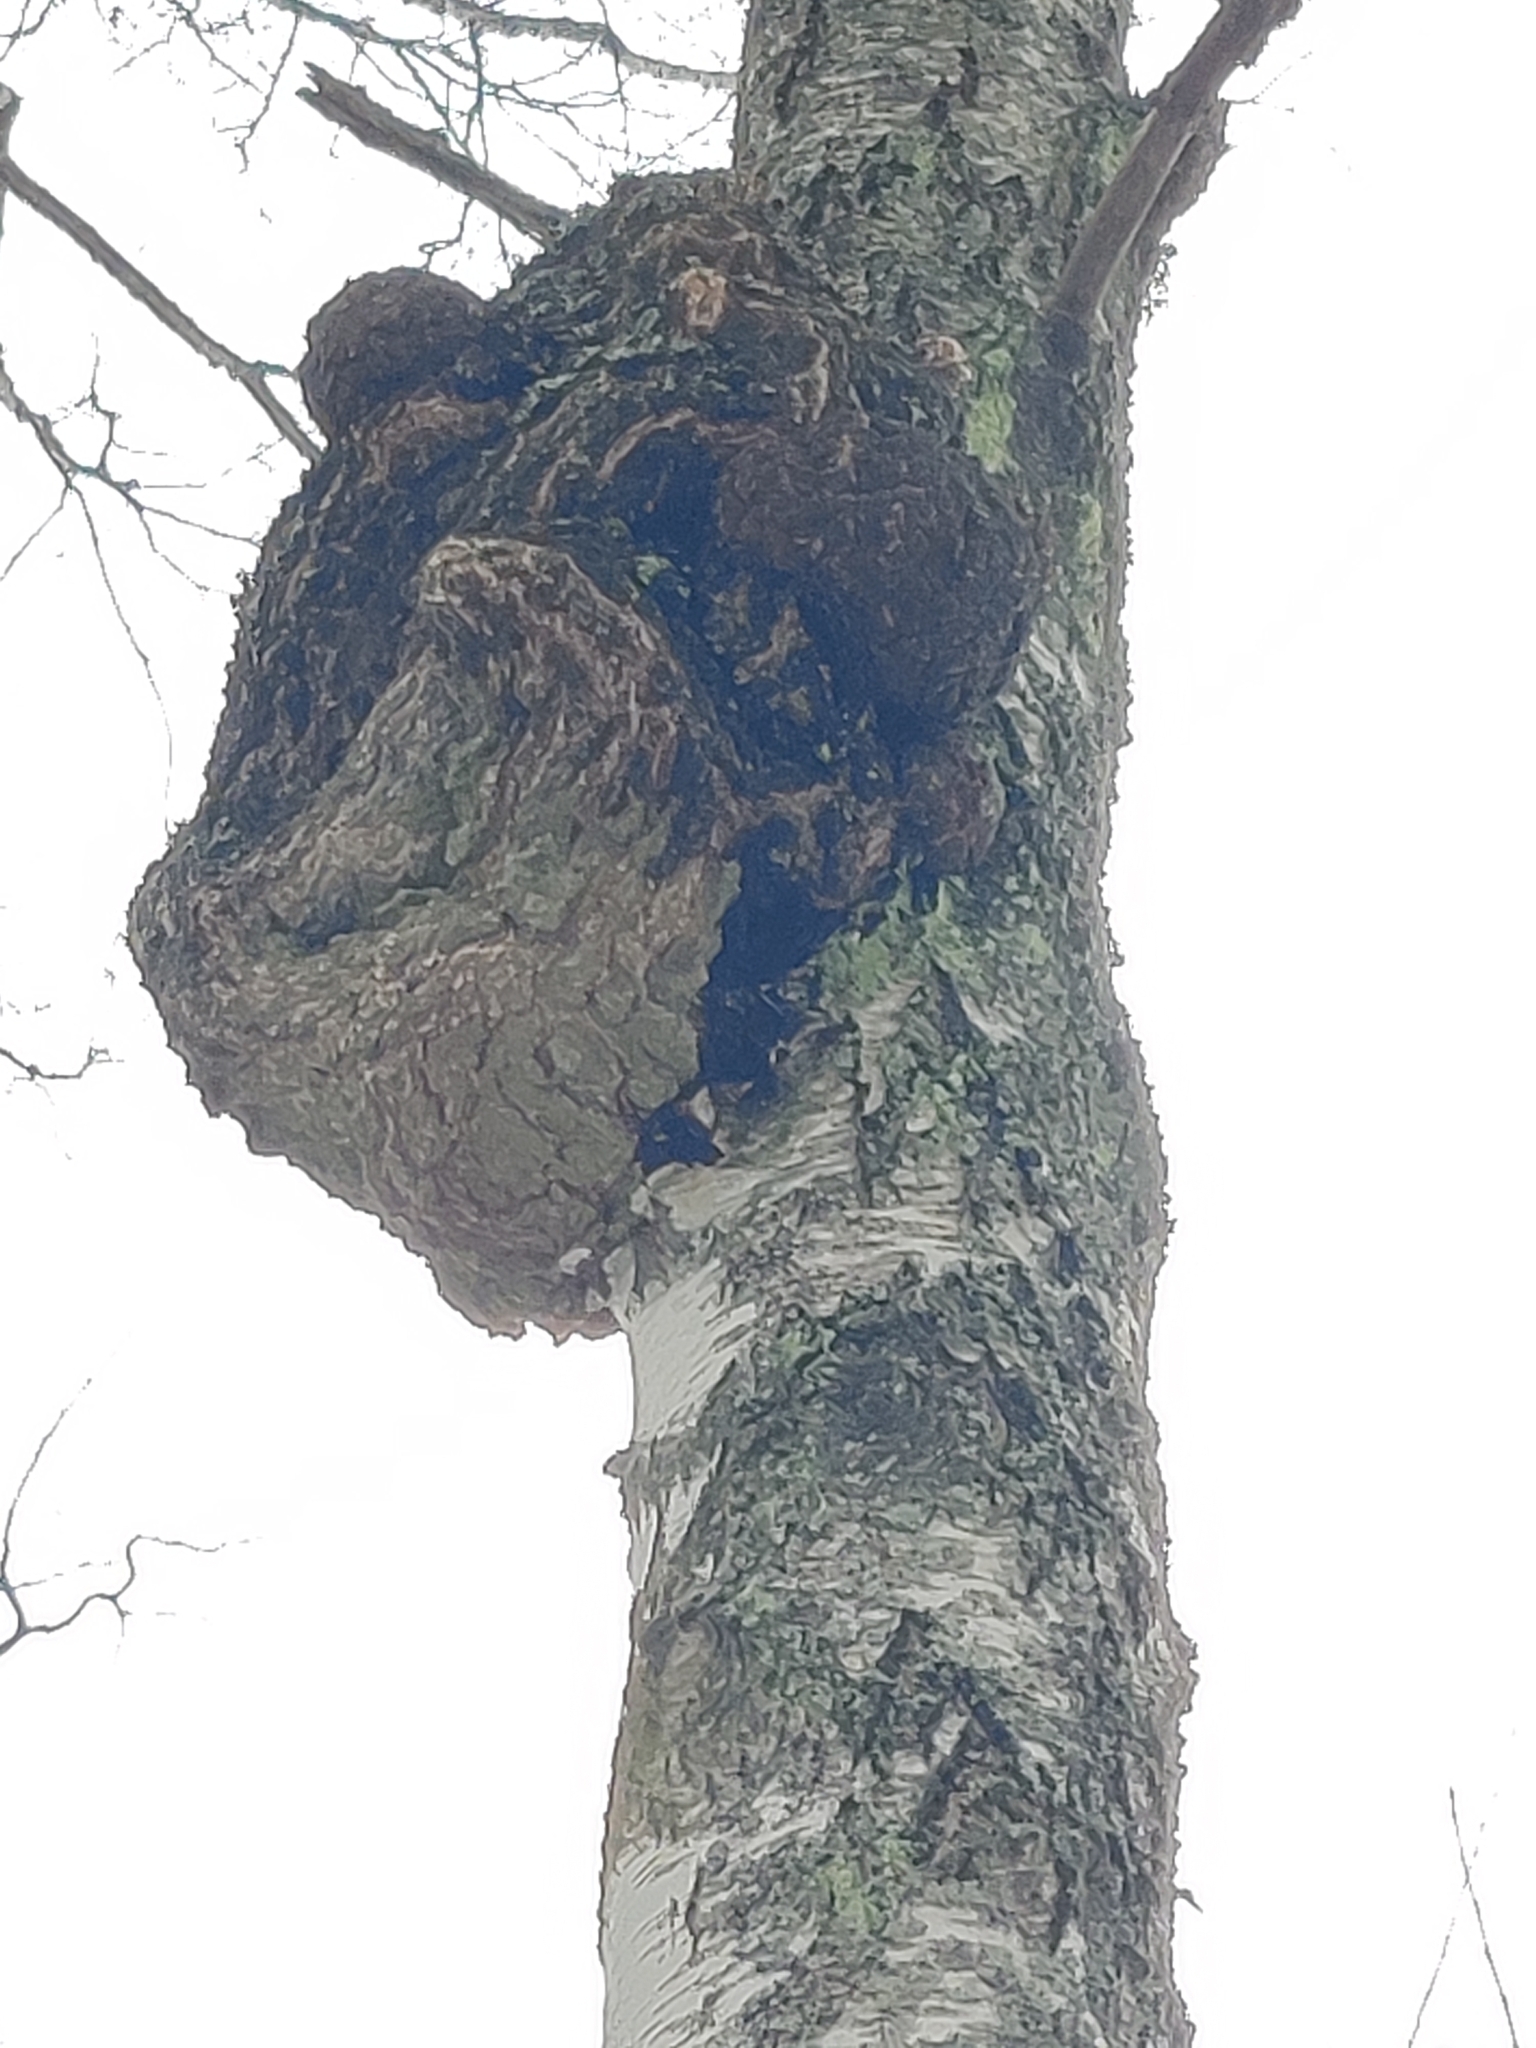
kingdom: Bacteria
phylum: Proteobacteria
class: Alphaproteobacteria
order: Rhizobiales
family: Rhizobiaceae
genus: Rhizobium
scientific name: Rhizobium Agrobacterium radiobacter
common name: Bacterial crown gall
